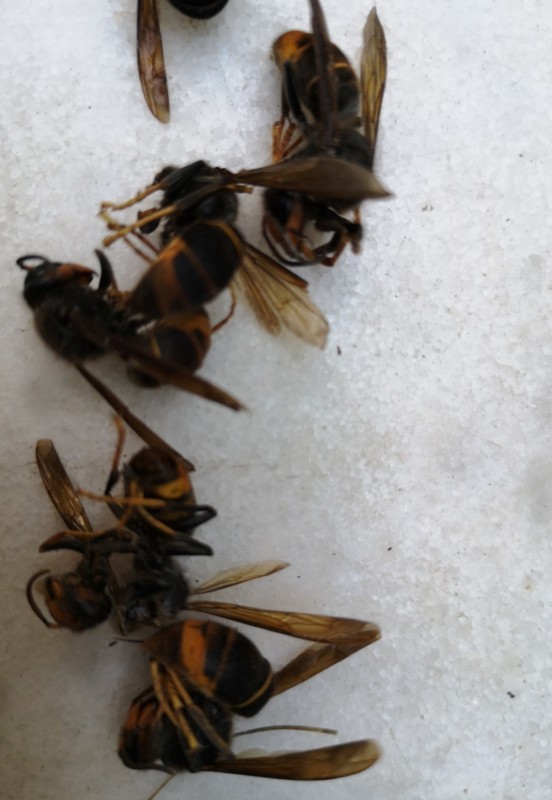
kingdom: Animalia
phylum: Arthropoda
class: Insecta
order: Hymenoptera
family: Vespidae
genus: Vespa
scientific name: Vespa velutina
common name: Asian hornet
